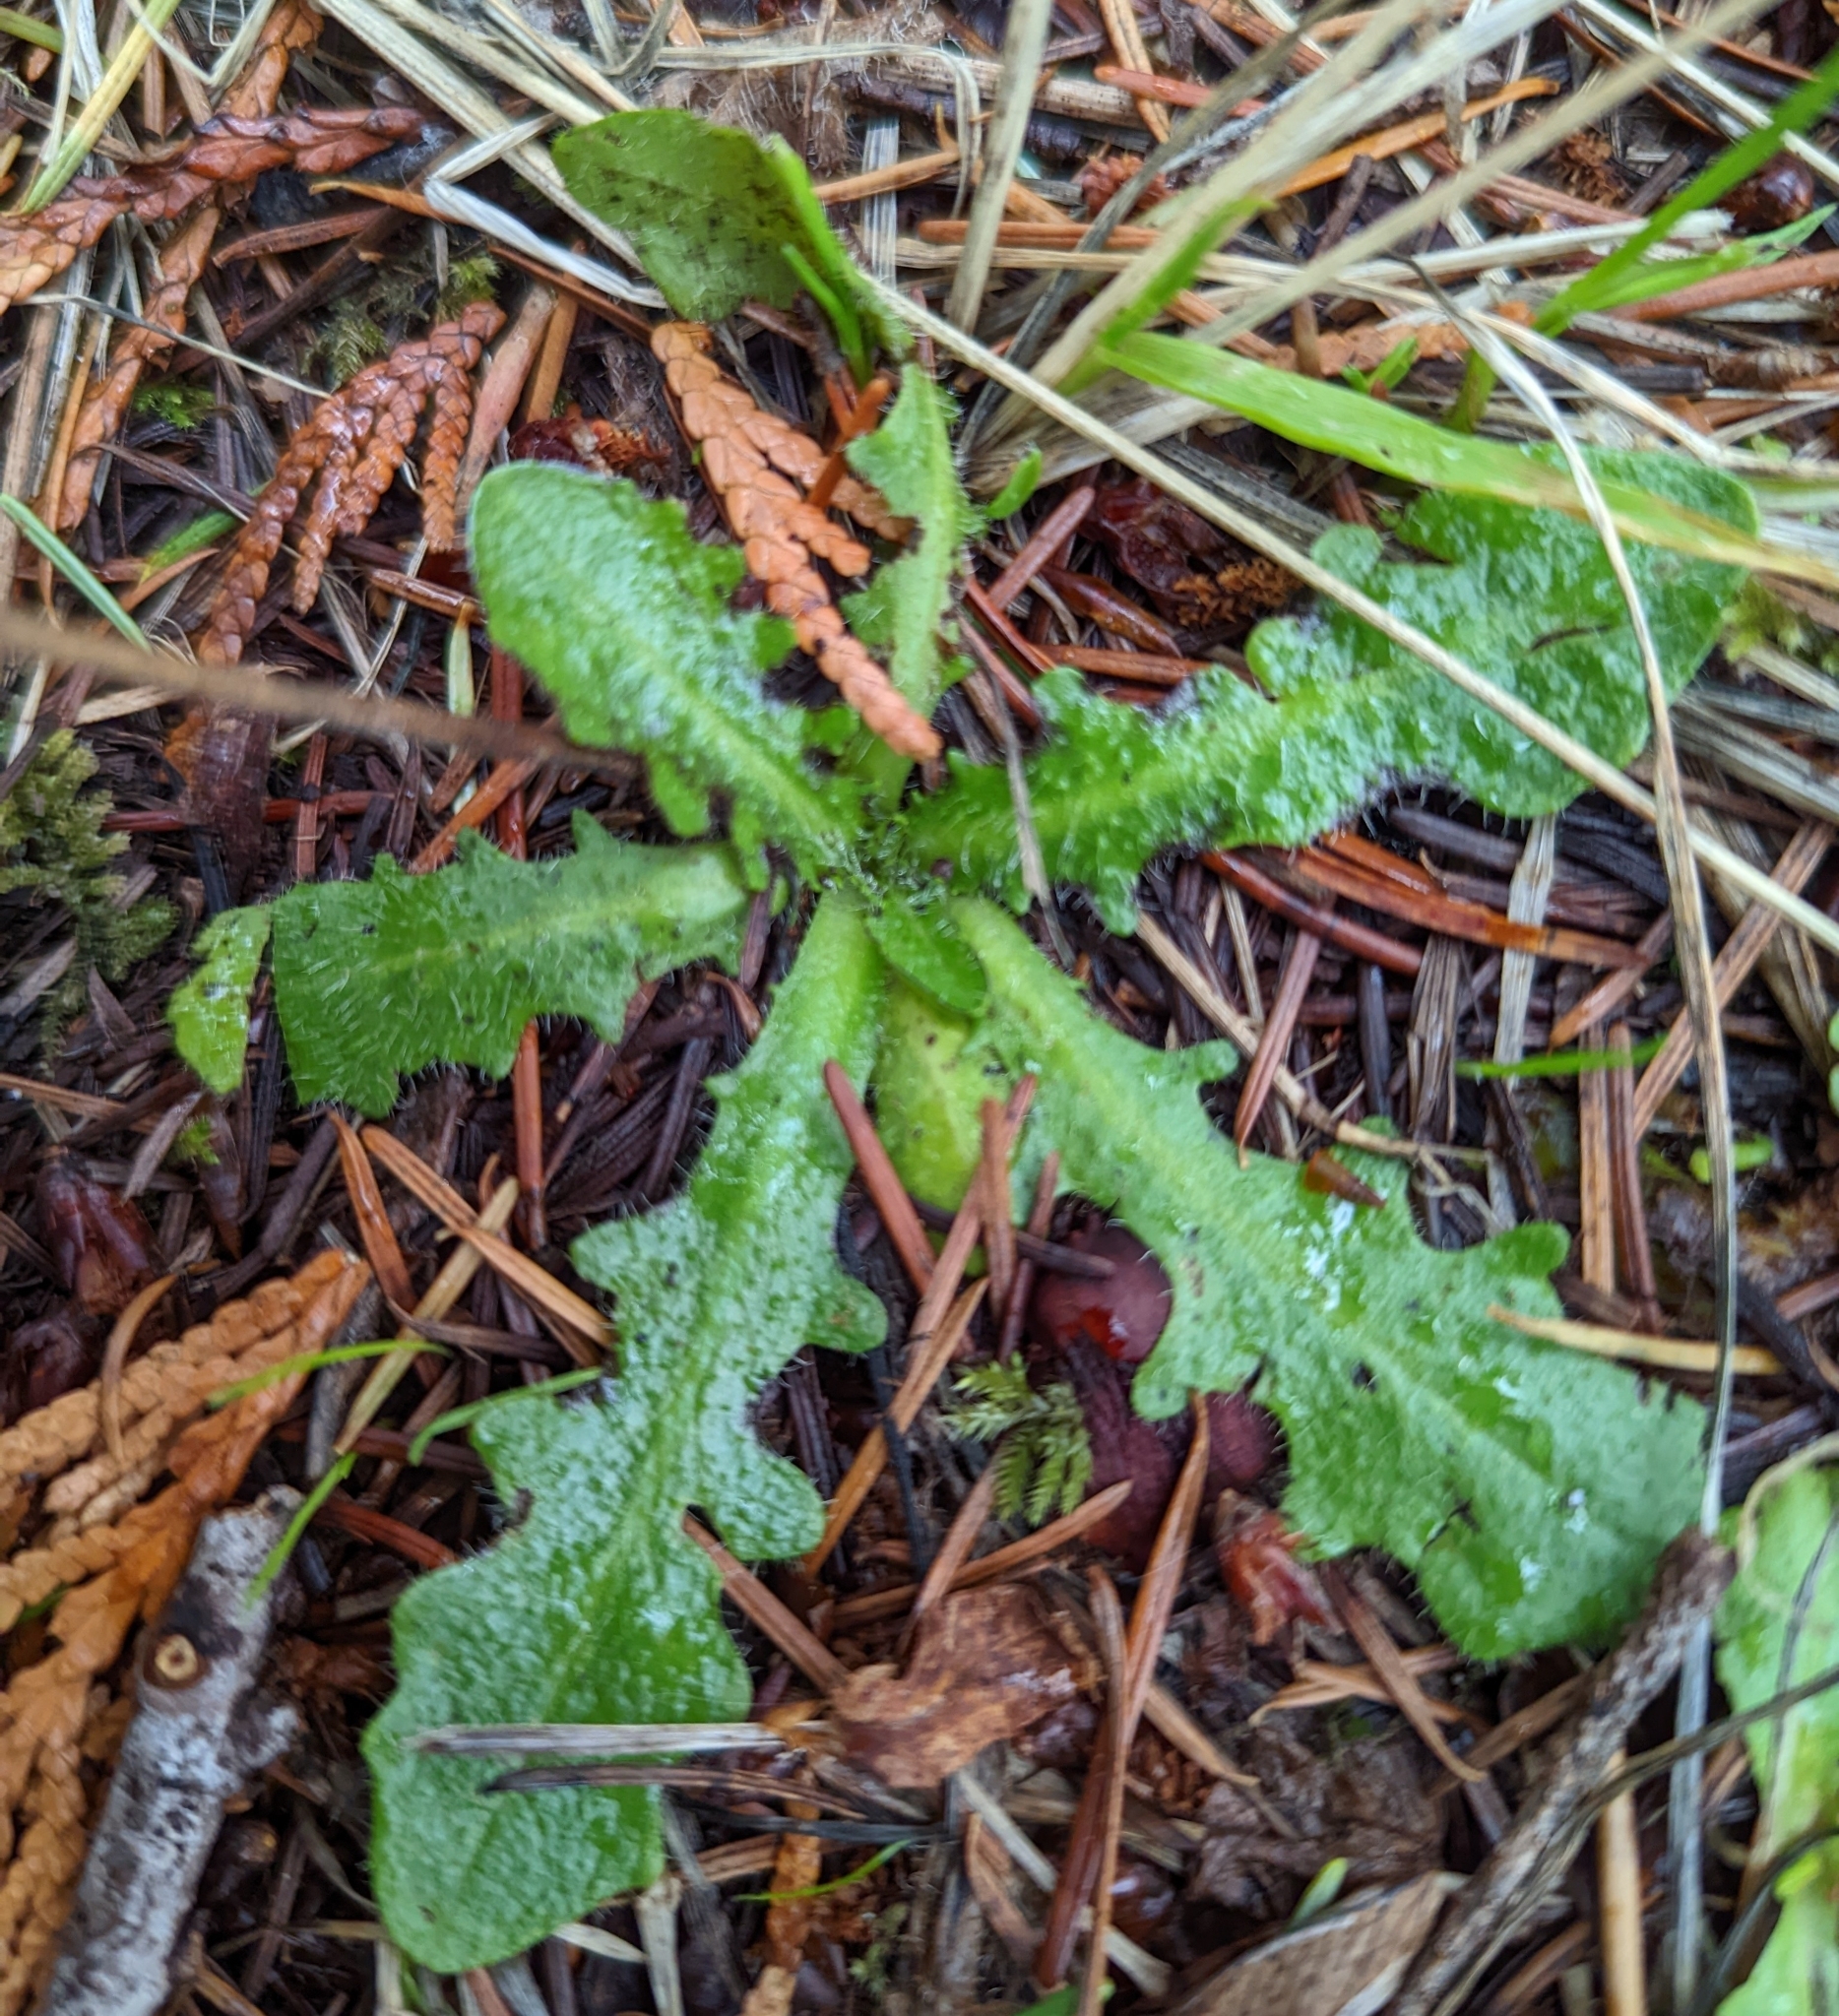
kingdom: Plantae
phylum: Tracheophyta
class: Magnoliopsida
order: Asterales
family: Asteraceae
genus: Hypochaeris
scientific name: Hypochaeris radicata
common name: Flatweed
